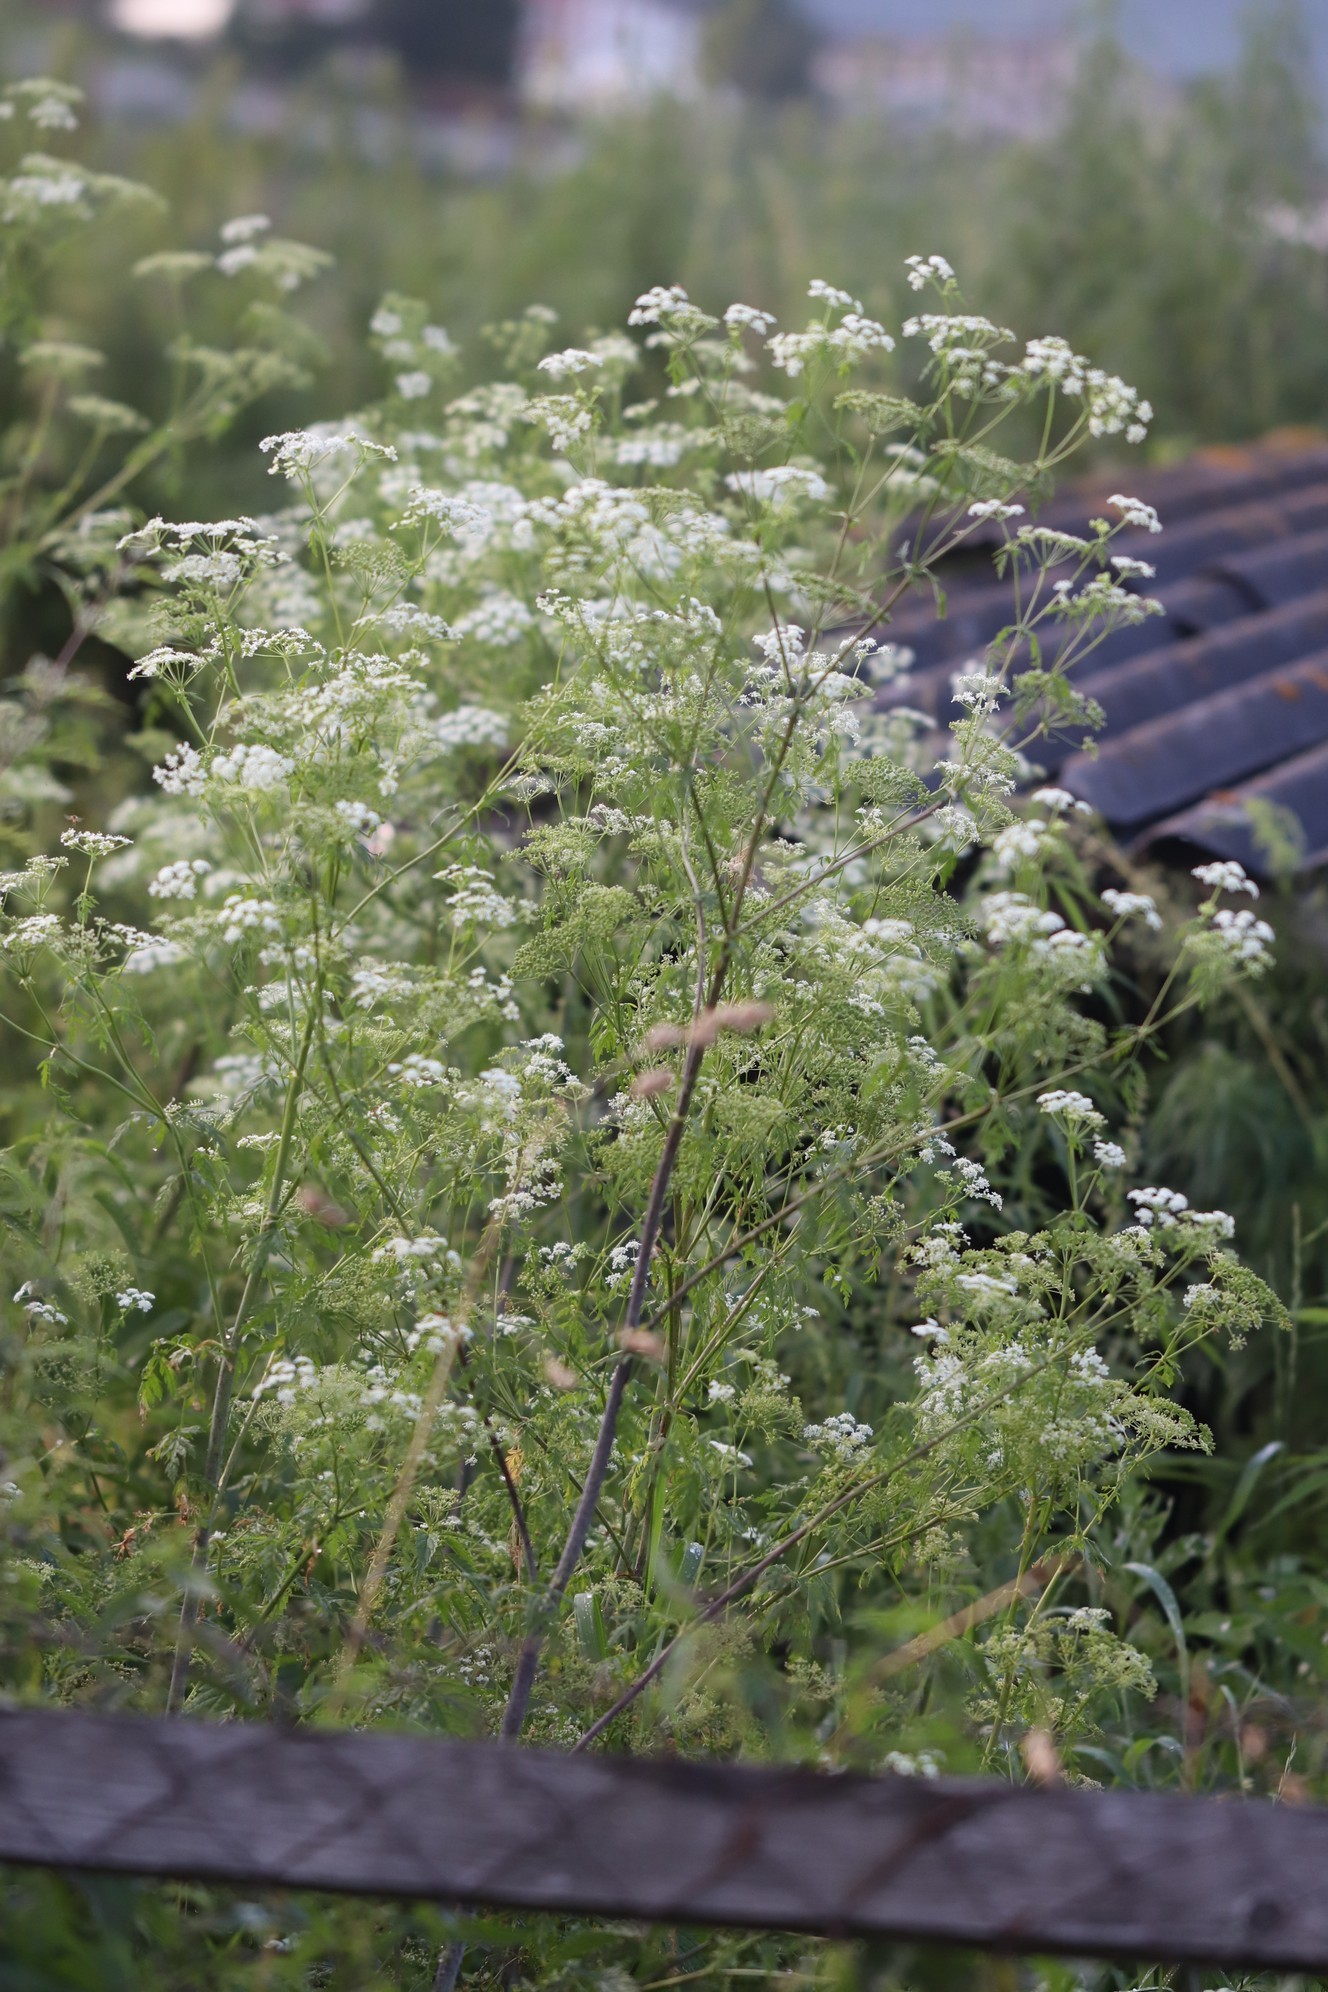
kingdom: Plantae
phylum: Tracheophyta
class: Magnoliopsida
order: Apiales
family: Apiaceae
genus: Conium
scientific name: Conium maculatum
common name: Hemlock
